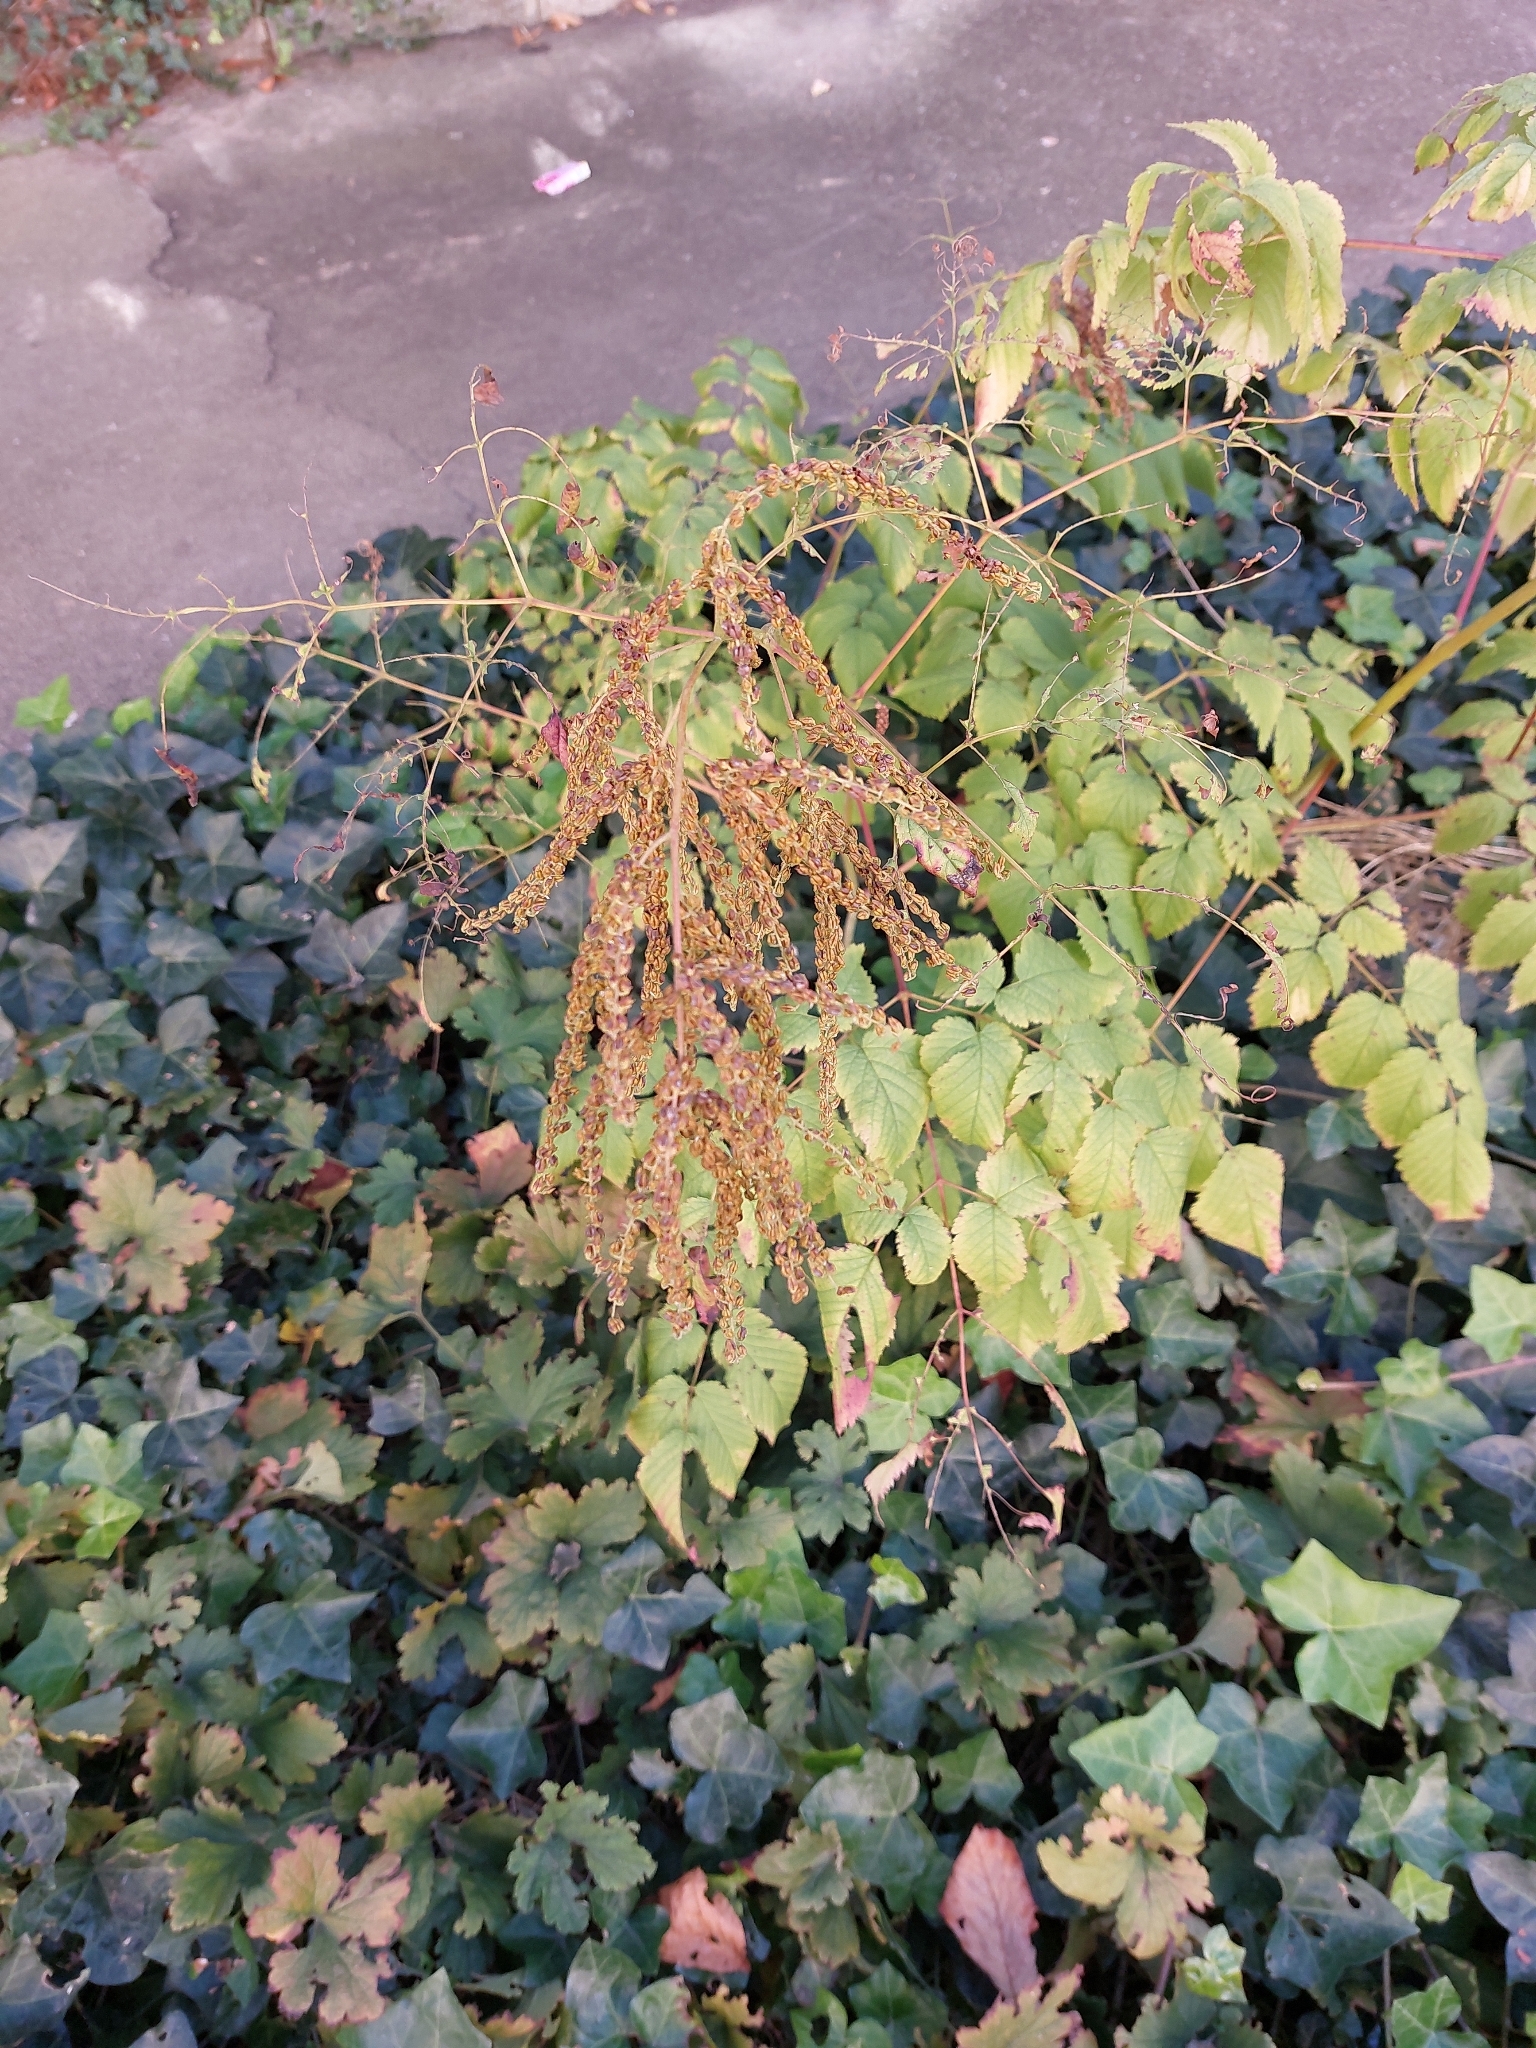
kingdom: Plantae
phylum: Tracheophyta
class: Magnoliopsida
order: Rosales
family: Rosaceae
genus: Aruncus
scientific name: Aruncus dioicus
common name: Buck's-beard
